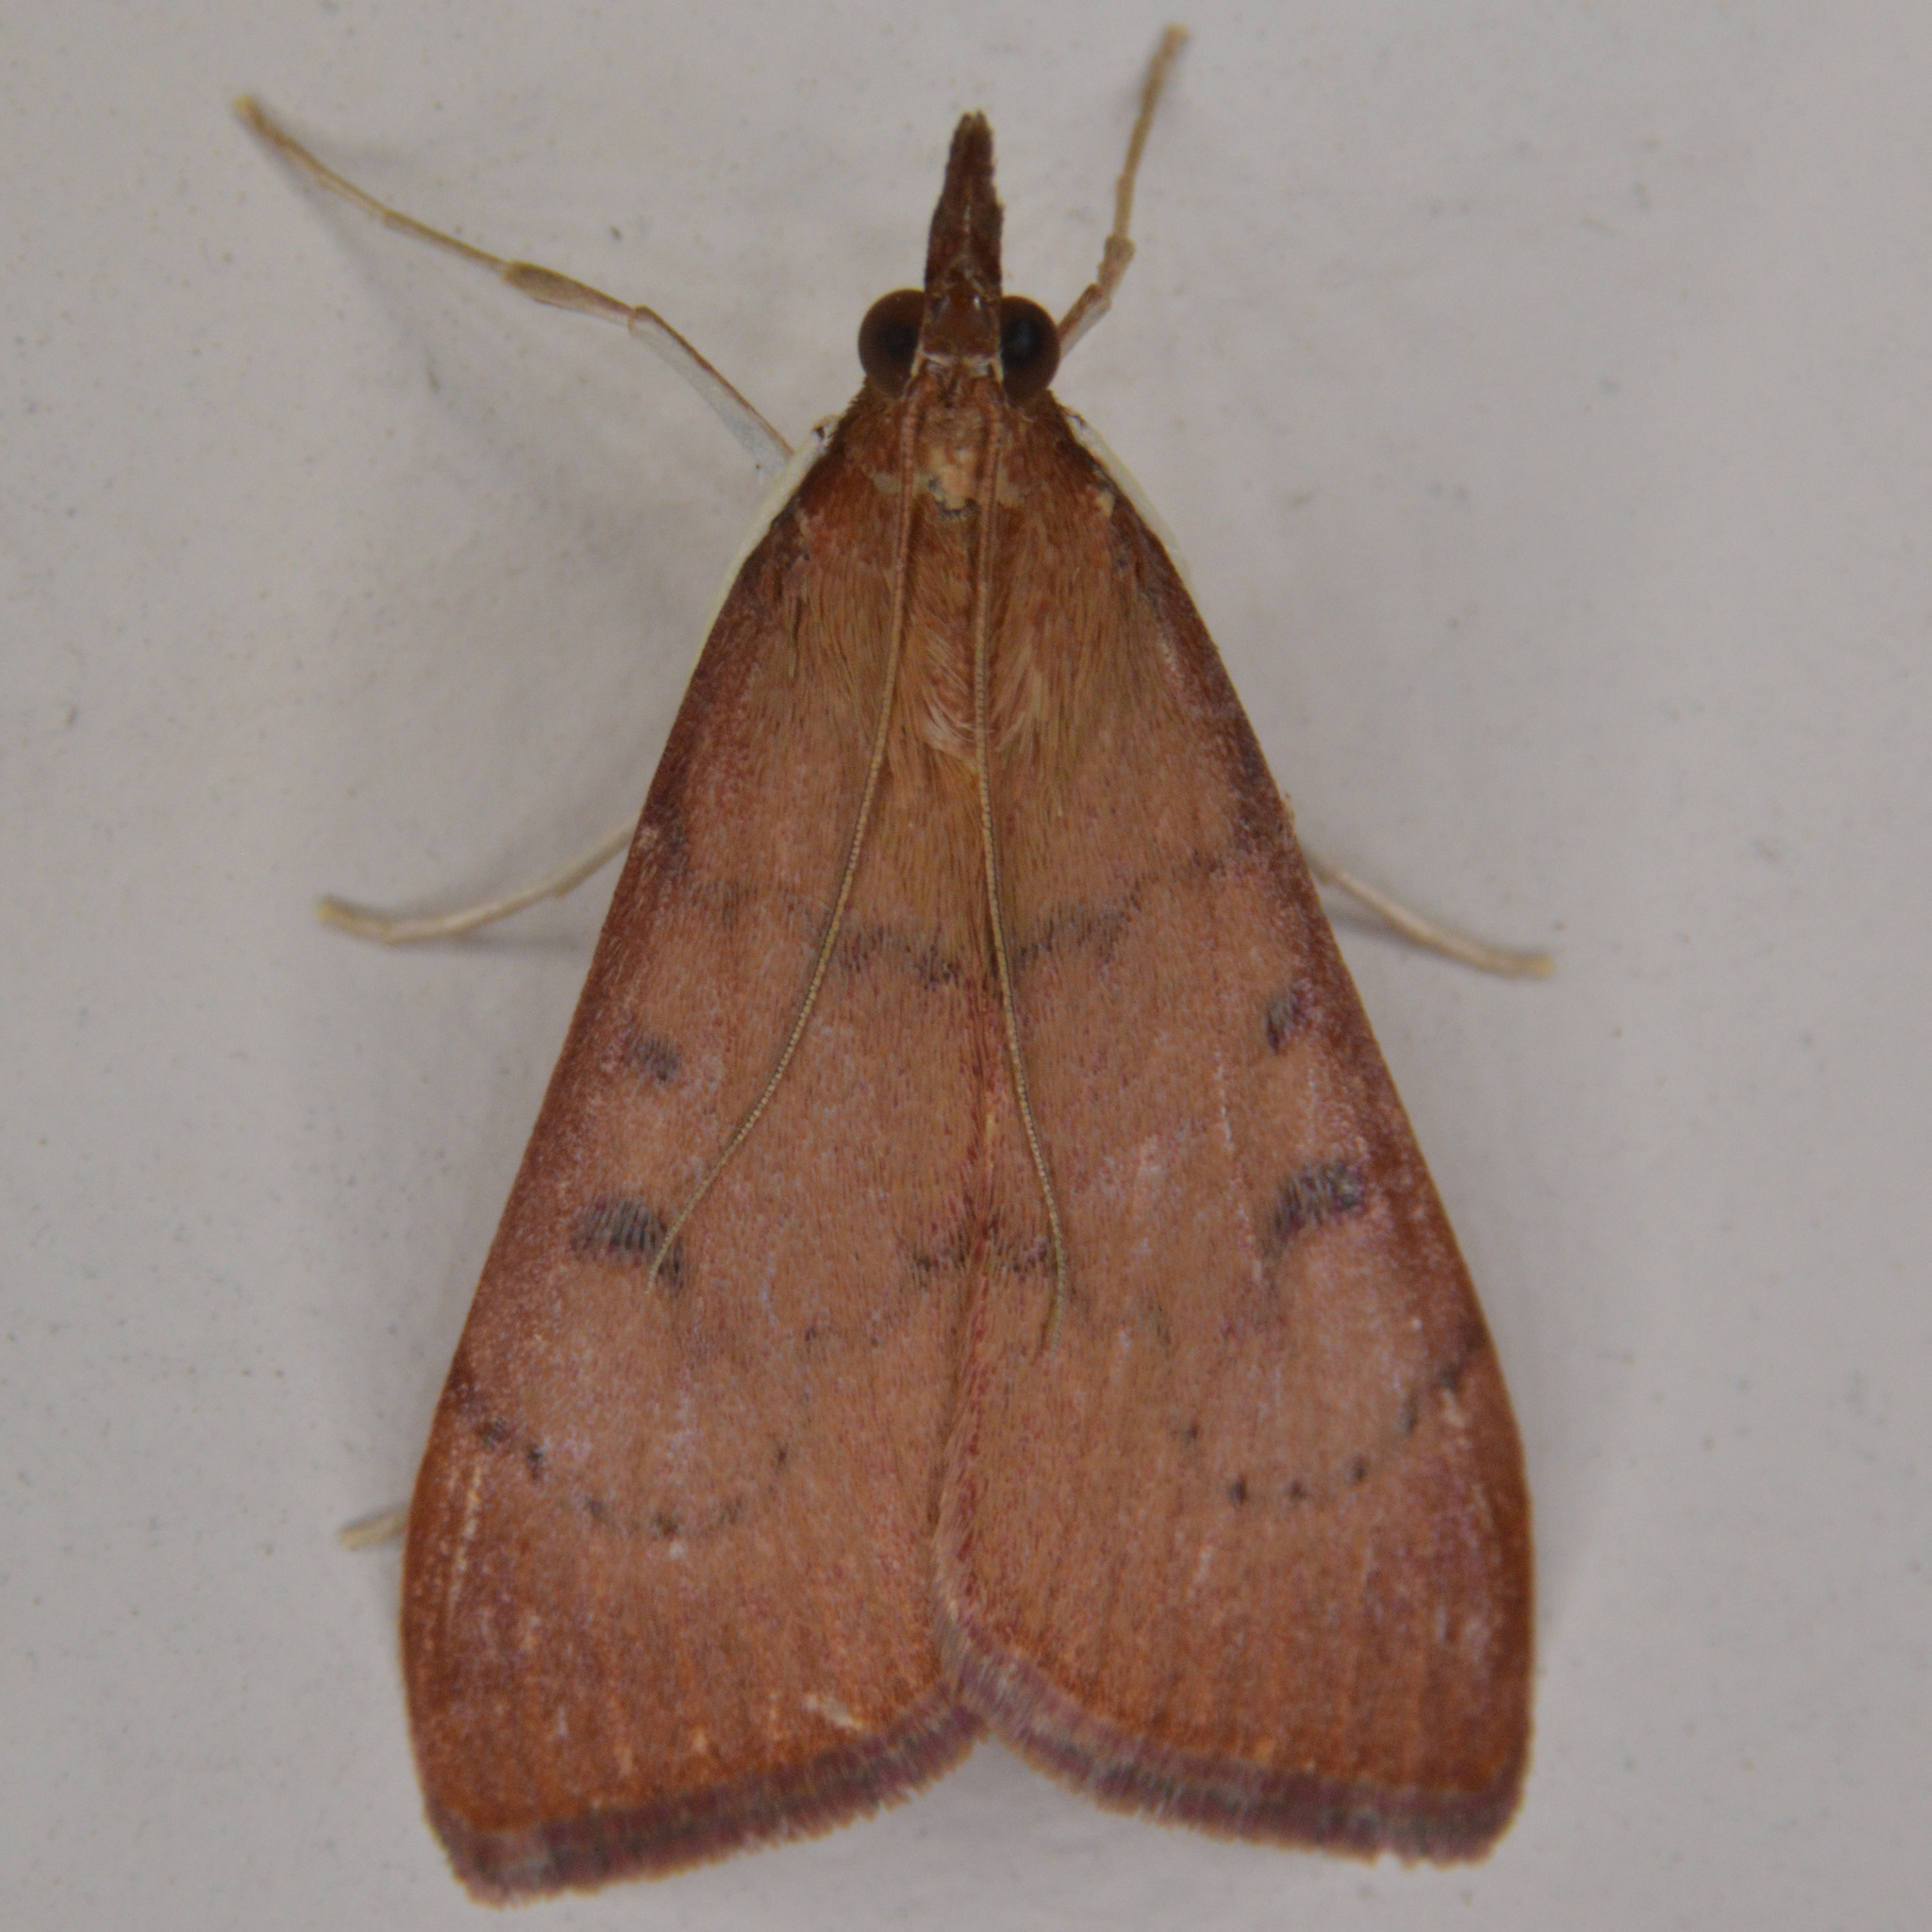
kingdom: Animalia
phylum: Arthropoda
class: Insecta
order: Lepidoptera
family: Crambidae
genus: Uresiphita
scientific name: Uresiphita reversalis
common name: Genista broom moth
